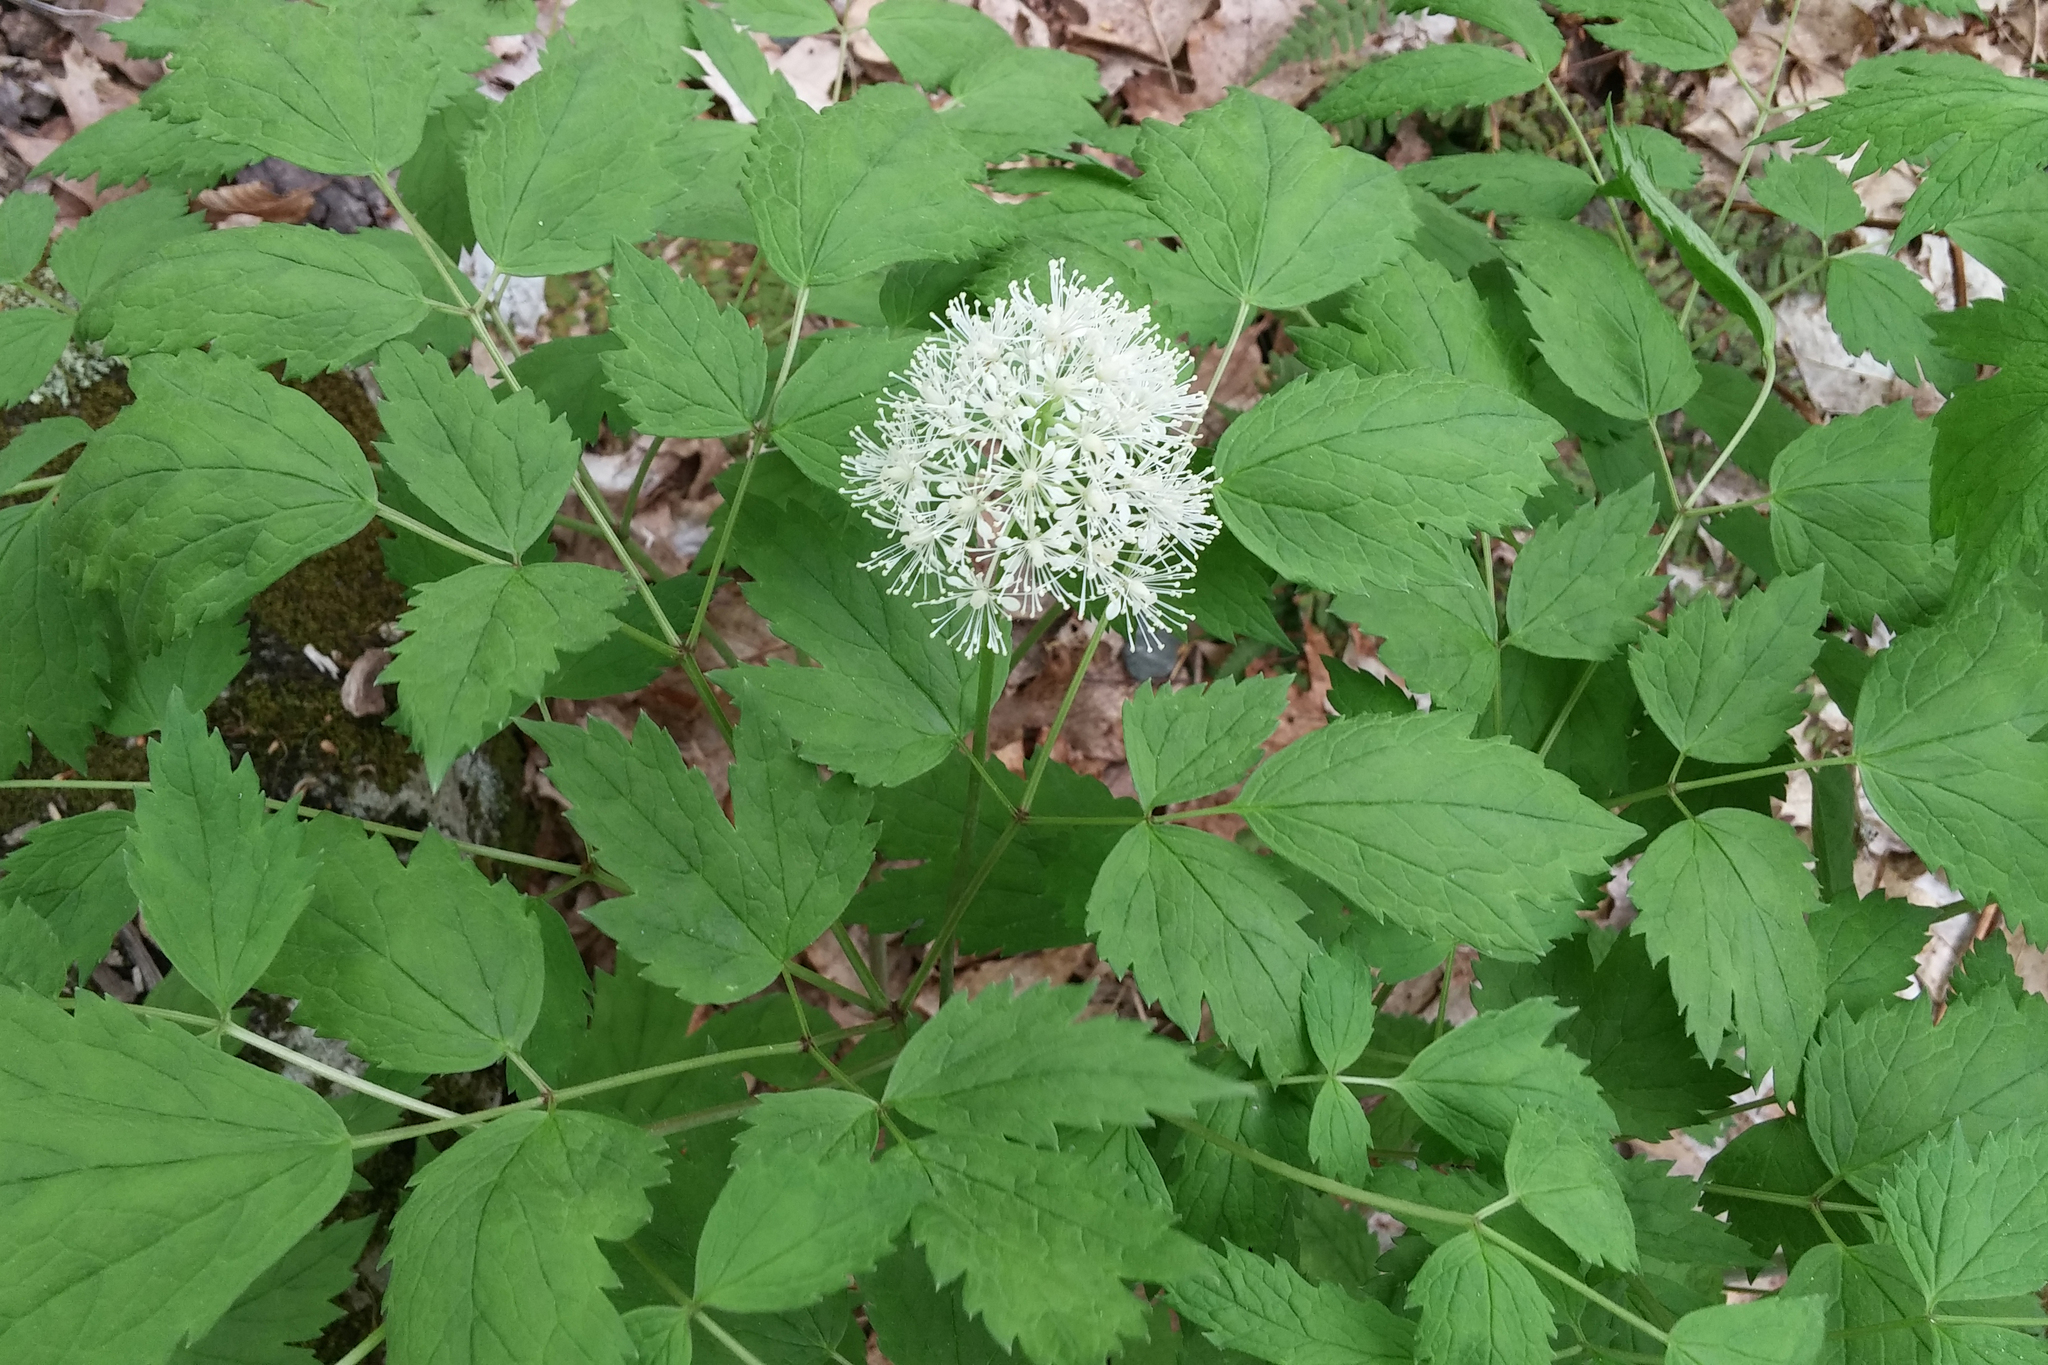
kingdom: Plantae
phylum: Tracheophyta
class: Magnoliopsida
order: Ranunculales
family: Ranunculaceae
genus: Actaea
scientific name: Actaea rubra
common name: Red baneberry
